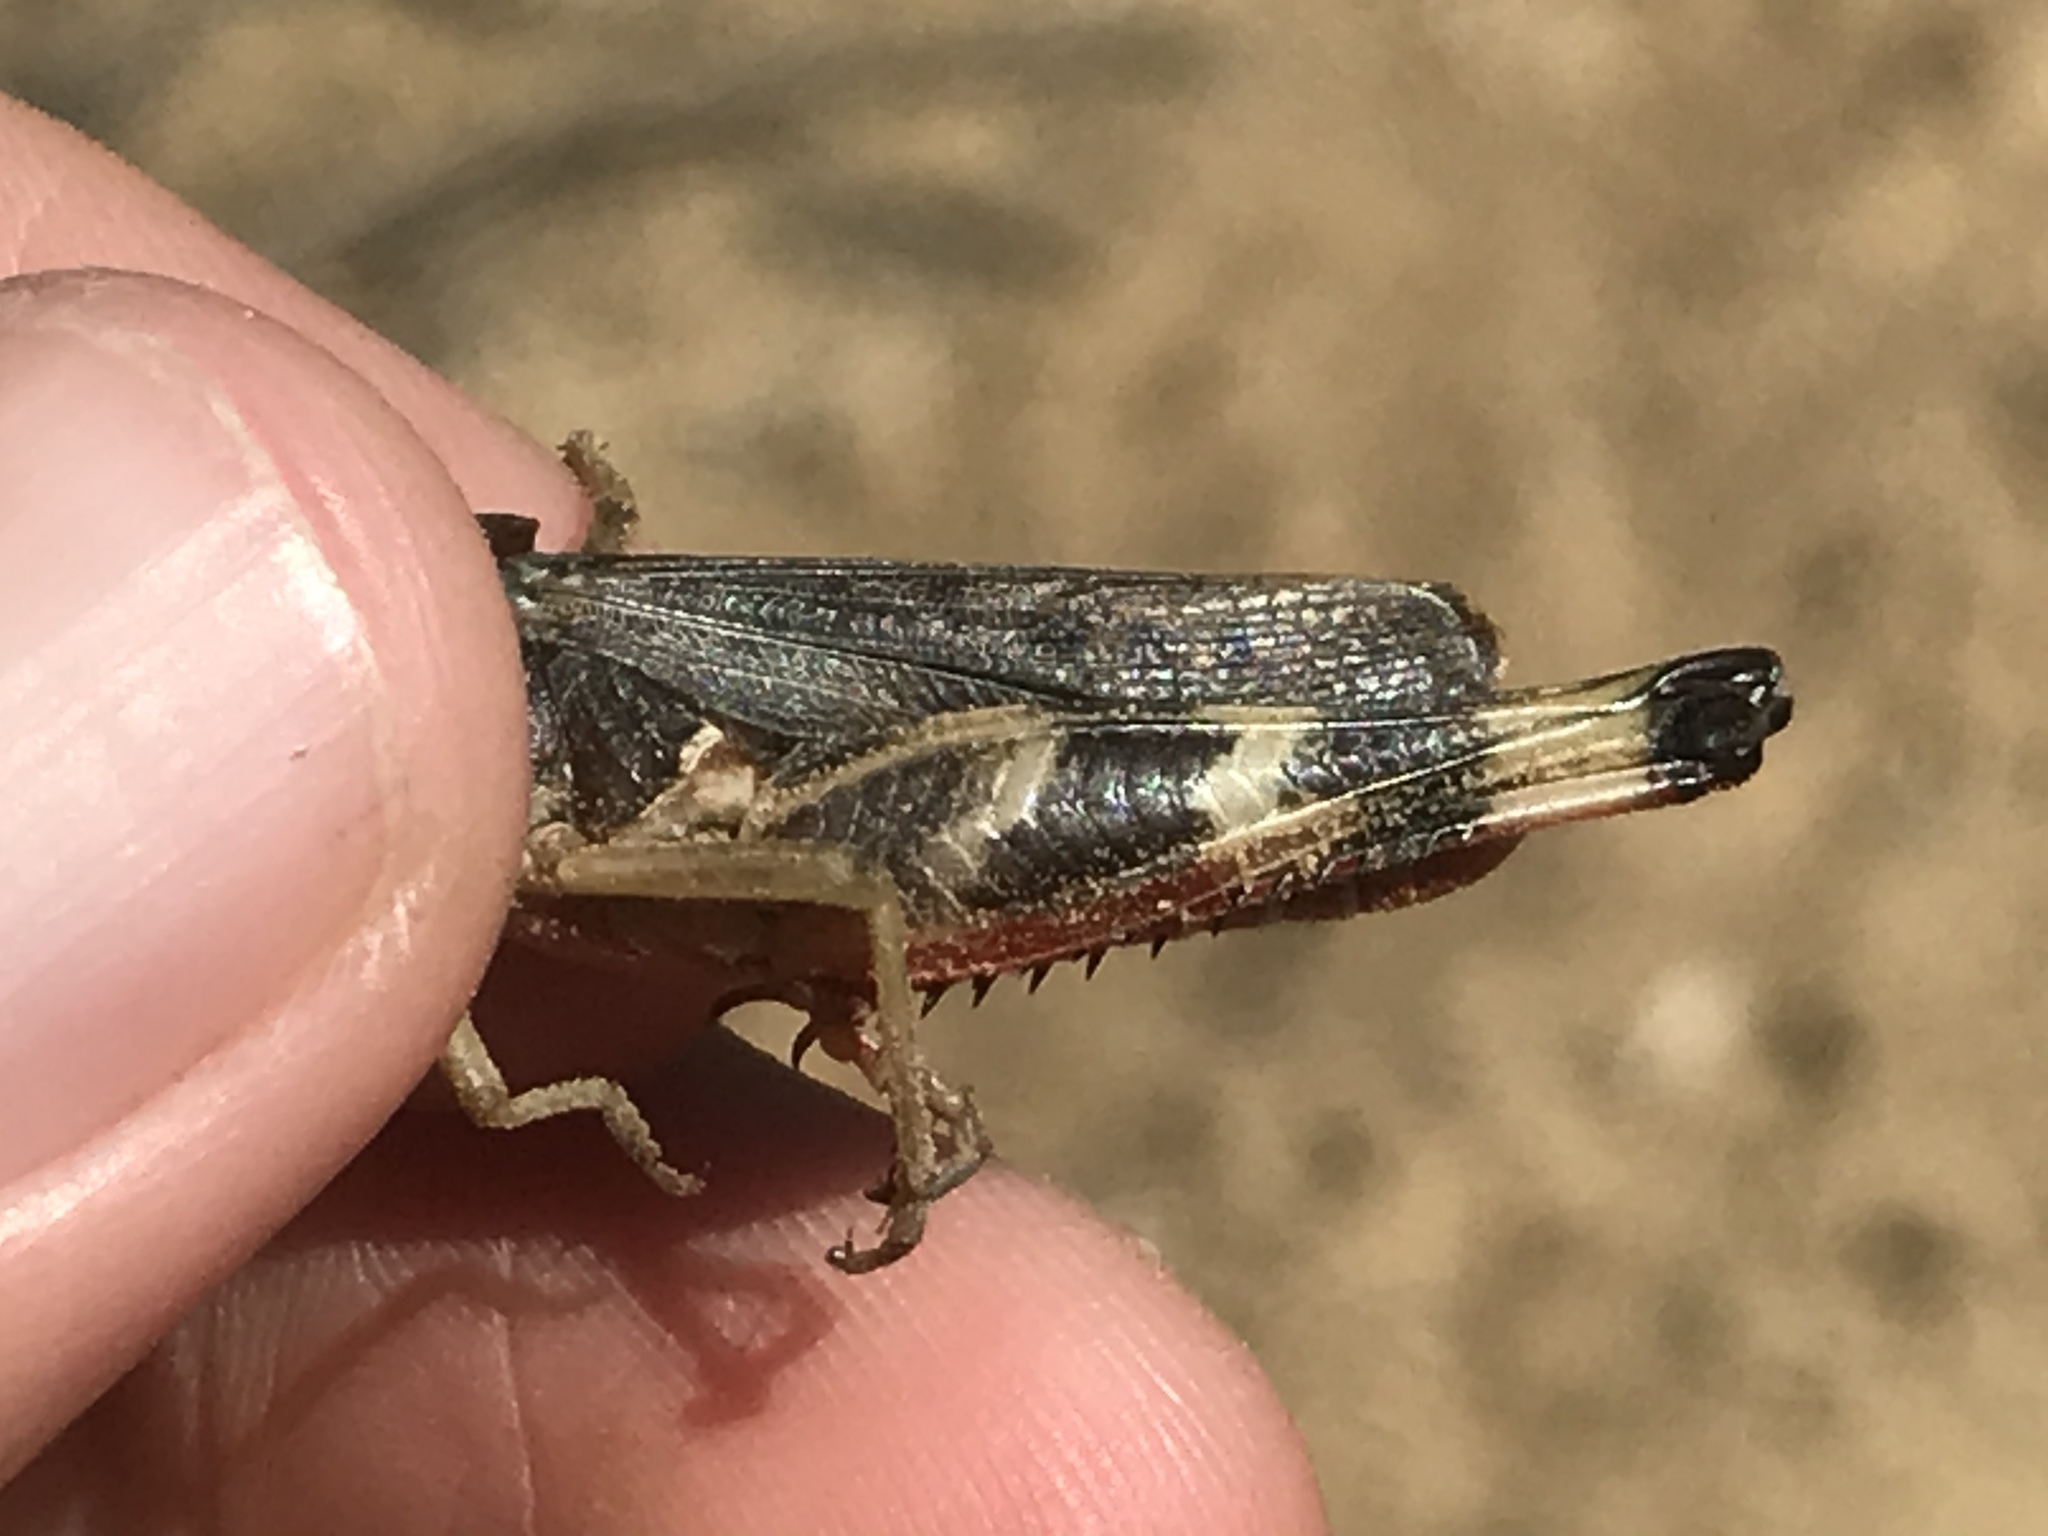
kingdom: Animalia
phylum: Arthropoda
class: Insecta
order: Orthoptera
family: Acrididae
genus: Boopedon
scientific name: Boopedon gracile
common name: Graceful range grasshopper
